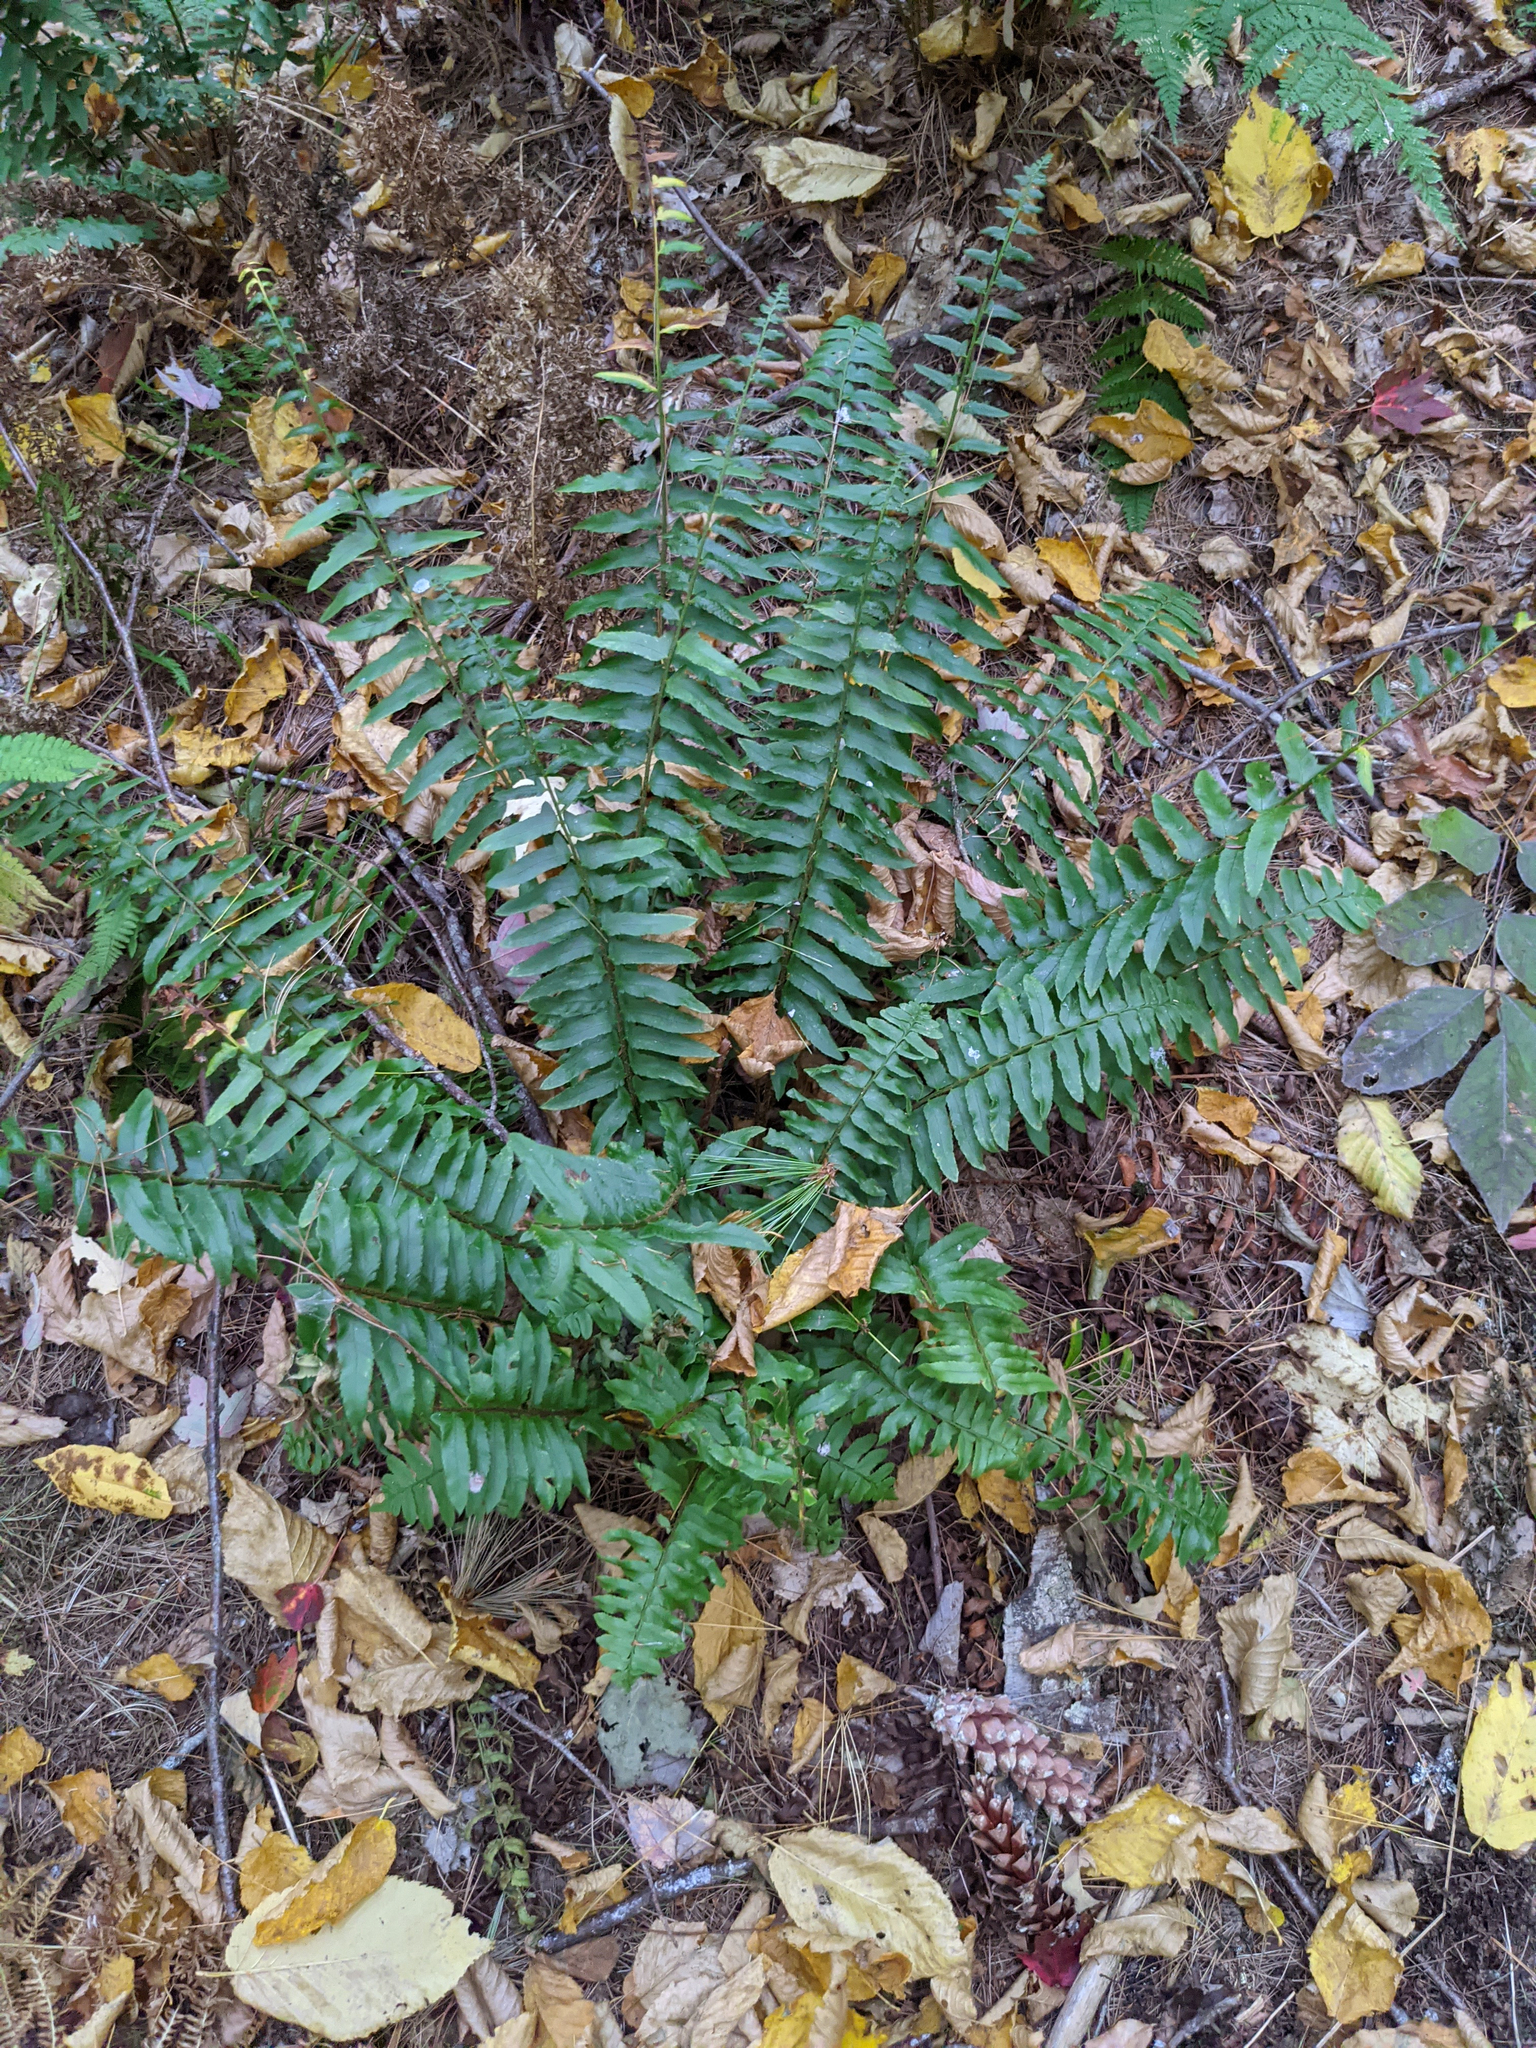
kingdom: Plantae
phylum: Tracheophyta
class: Polypodiopsida
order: Polypodiales
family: Dryopteridaceae
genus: Polystichum
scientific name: Polystichum acrostichoides
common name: Christmas fern
